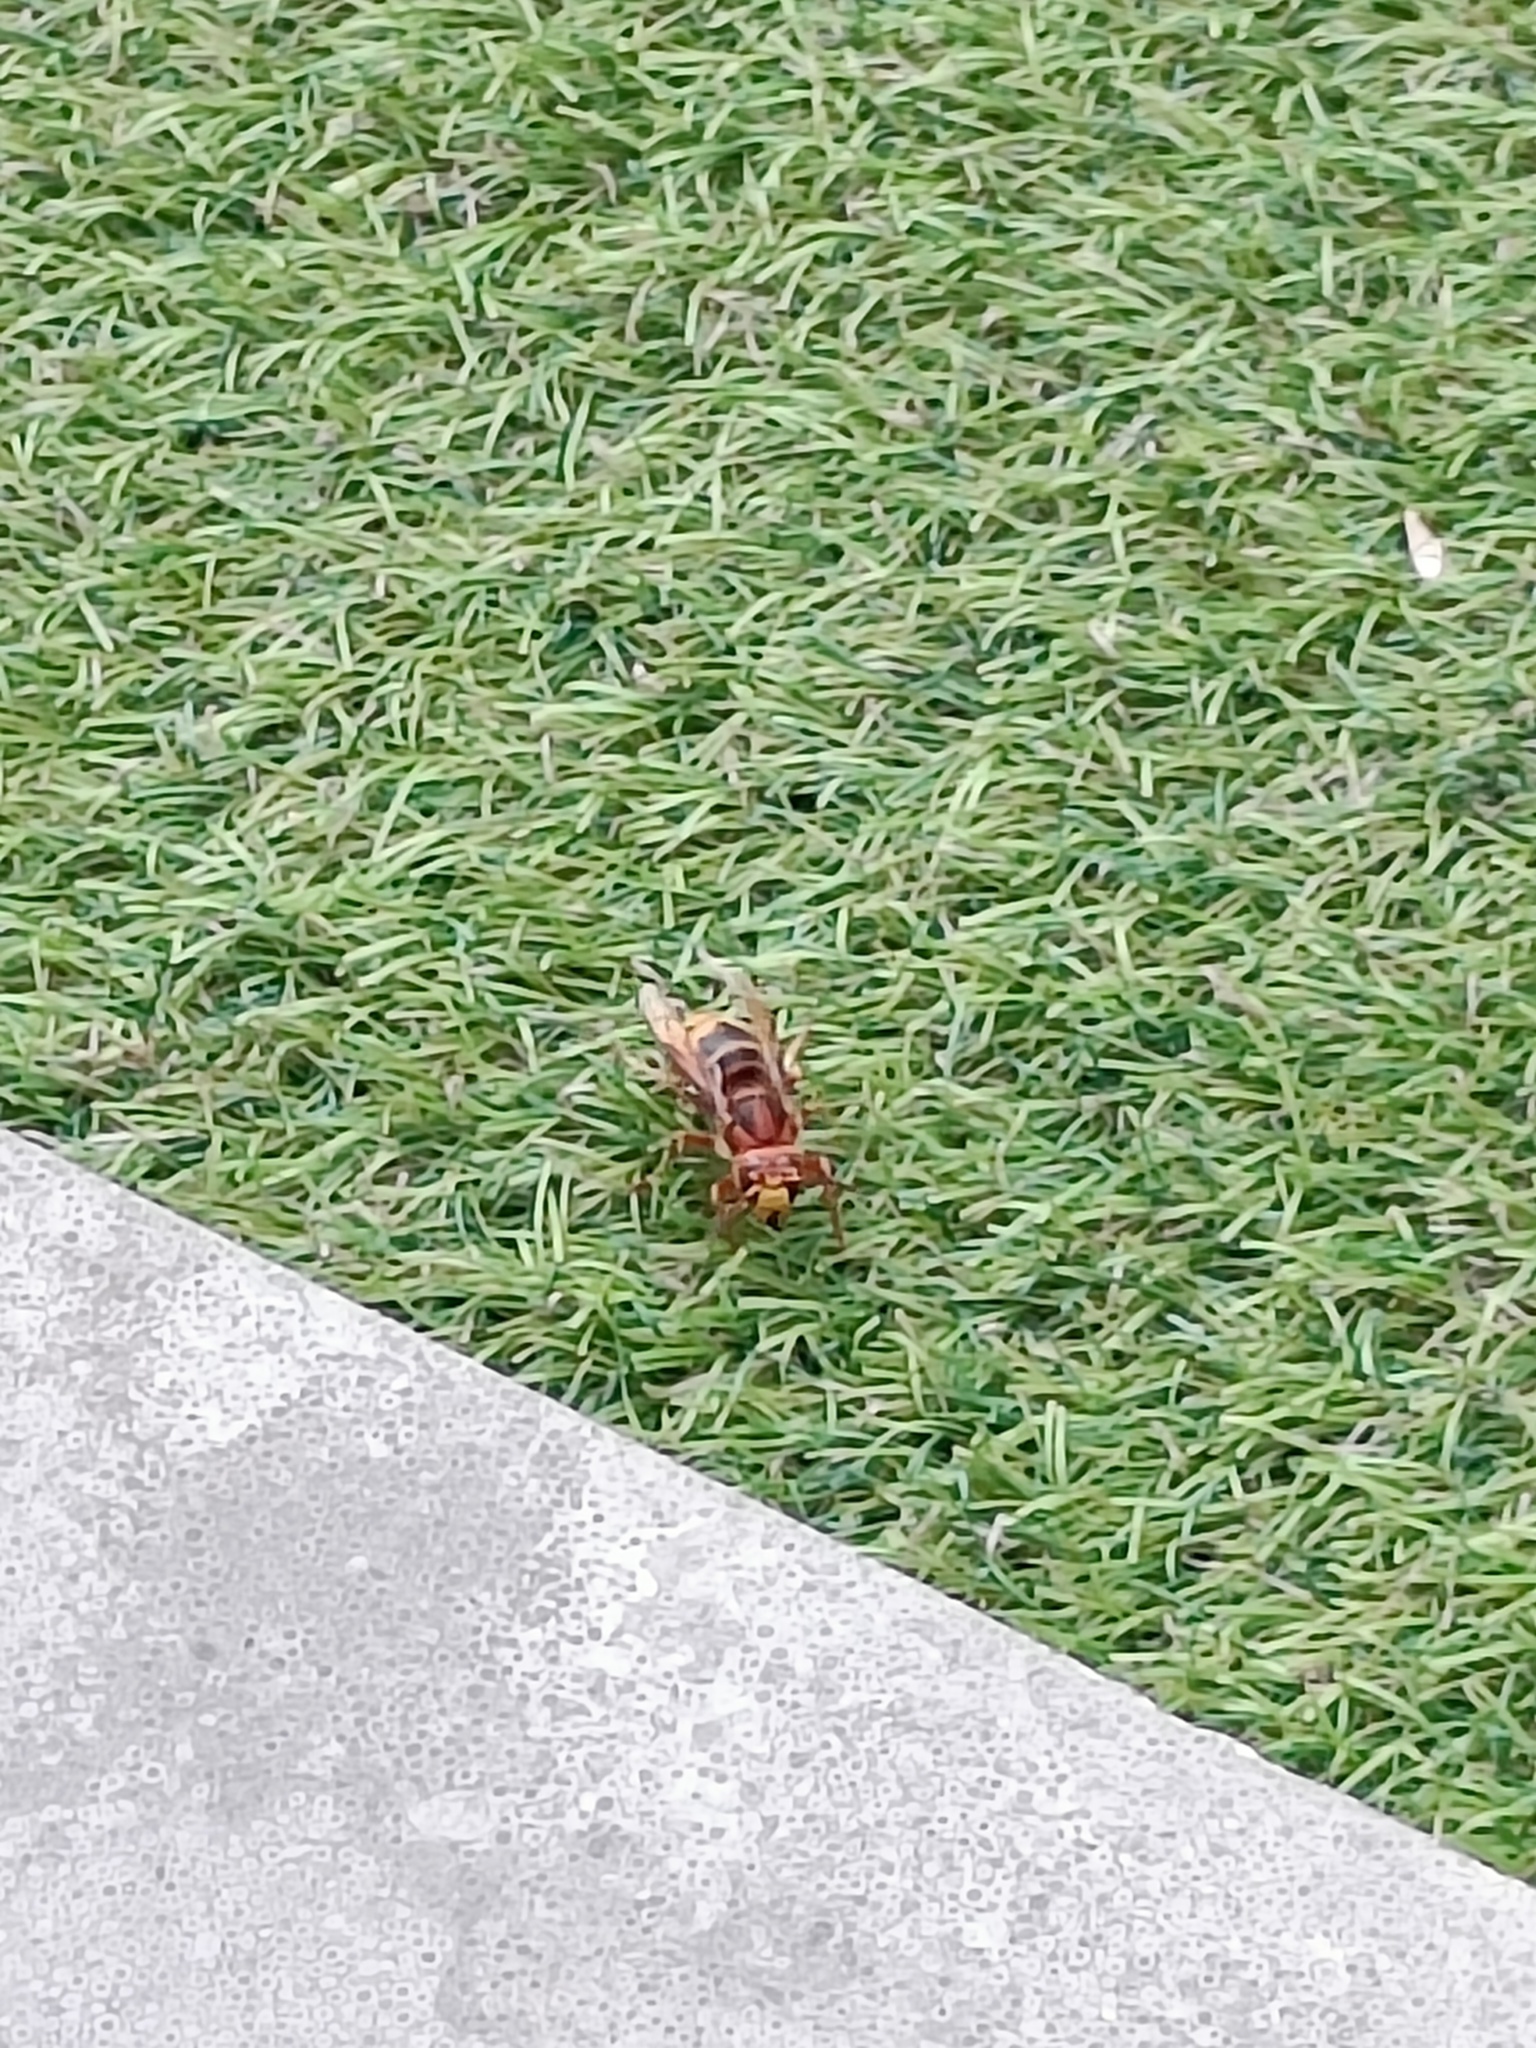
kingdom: Animalia
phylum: Arthropoda
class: Insecta
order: Hymenoptera
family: Vespidae
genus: Vespa
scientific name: Vespa crabro
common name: Hornet
